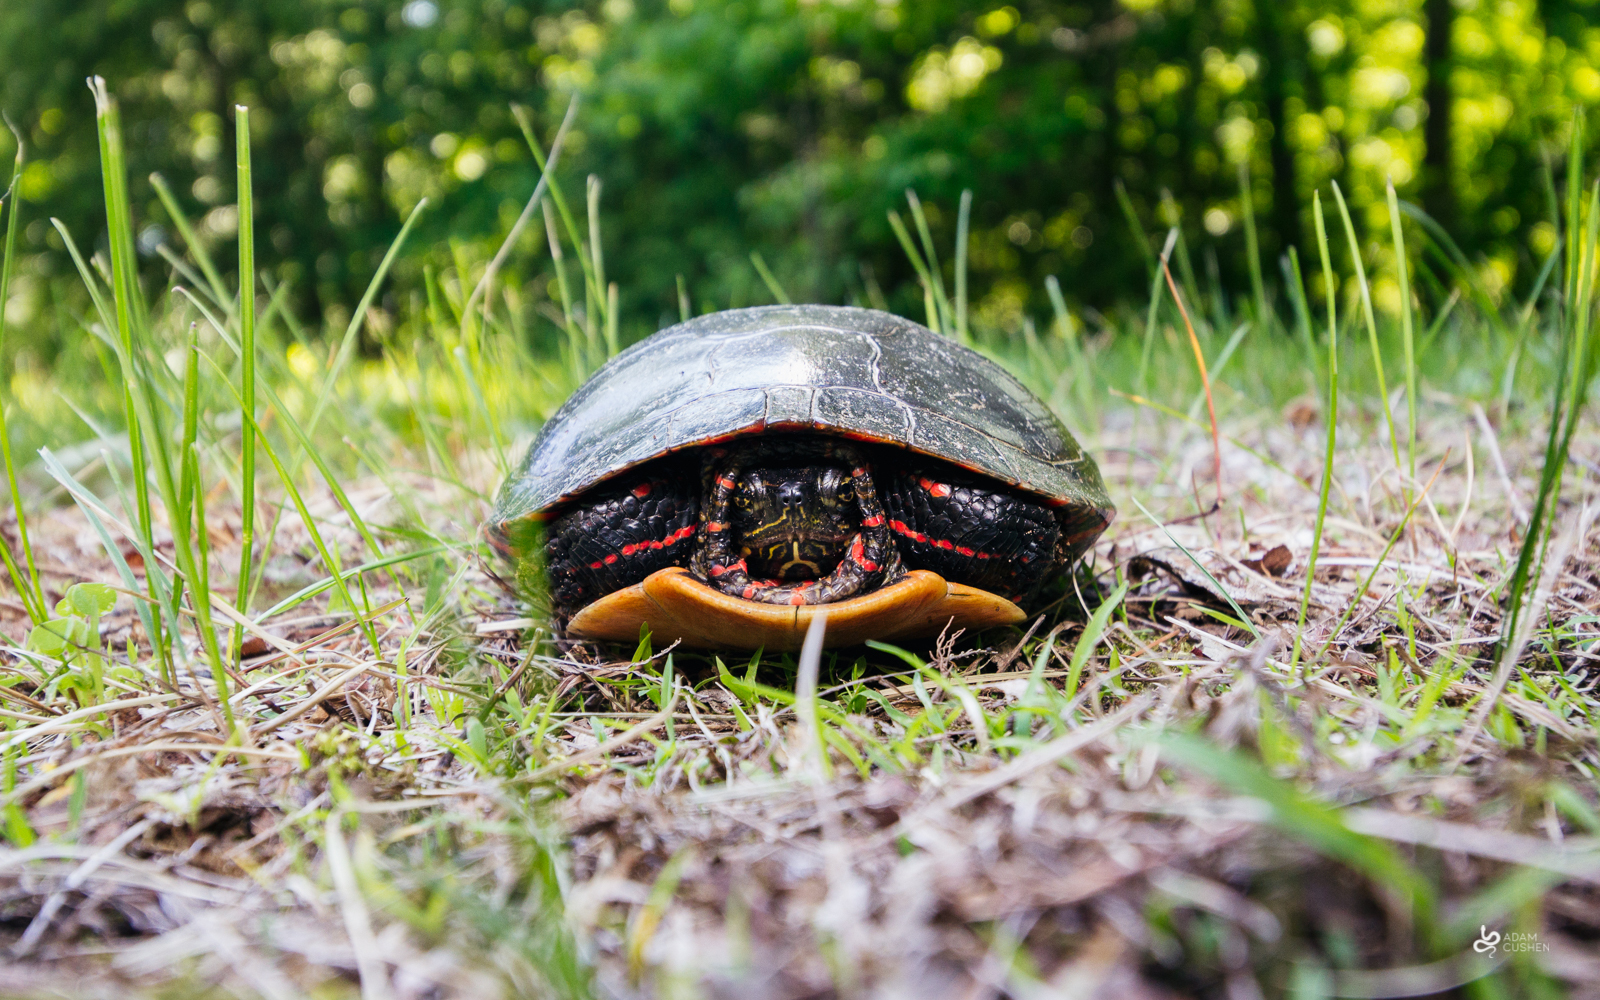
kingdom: Animalia
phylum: Chordata
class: Testudines
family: Emydidae
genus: Chrysemys
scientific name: Chrysemys picta
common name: Painted turtle
